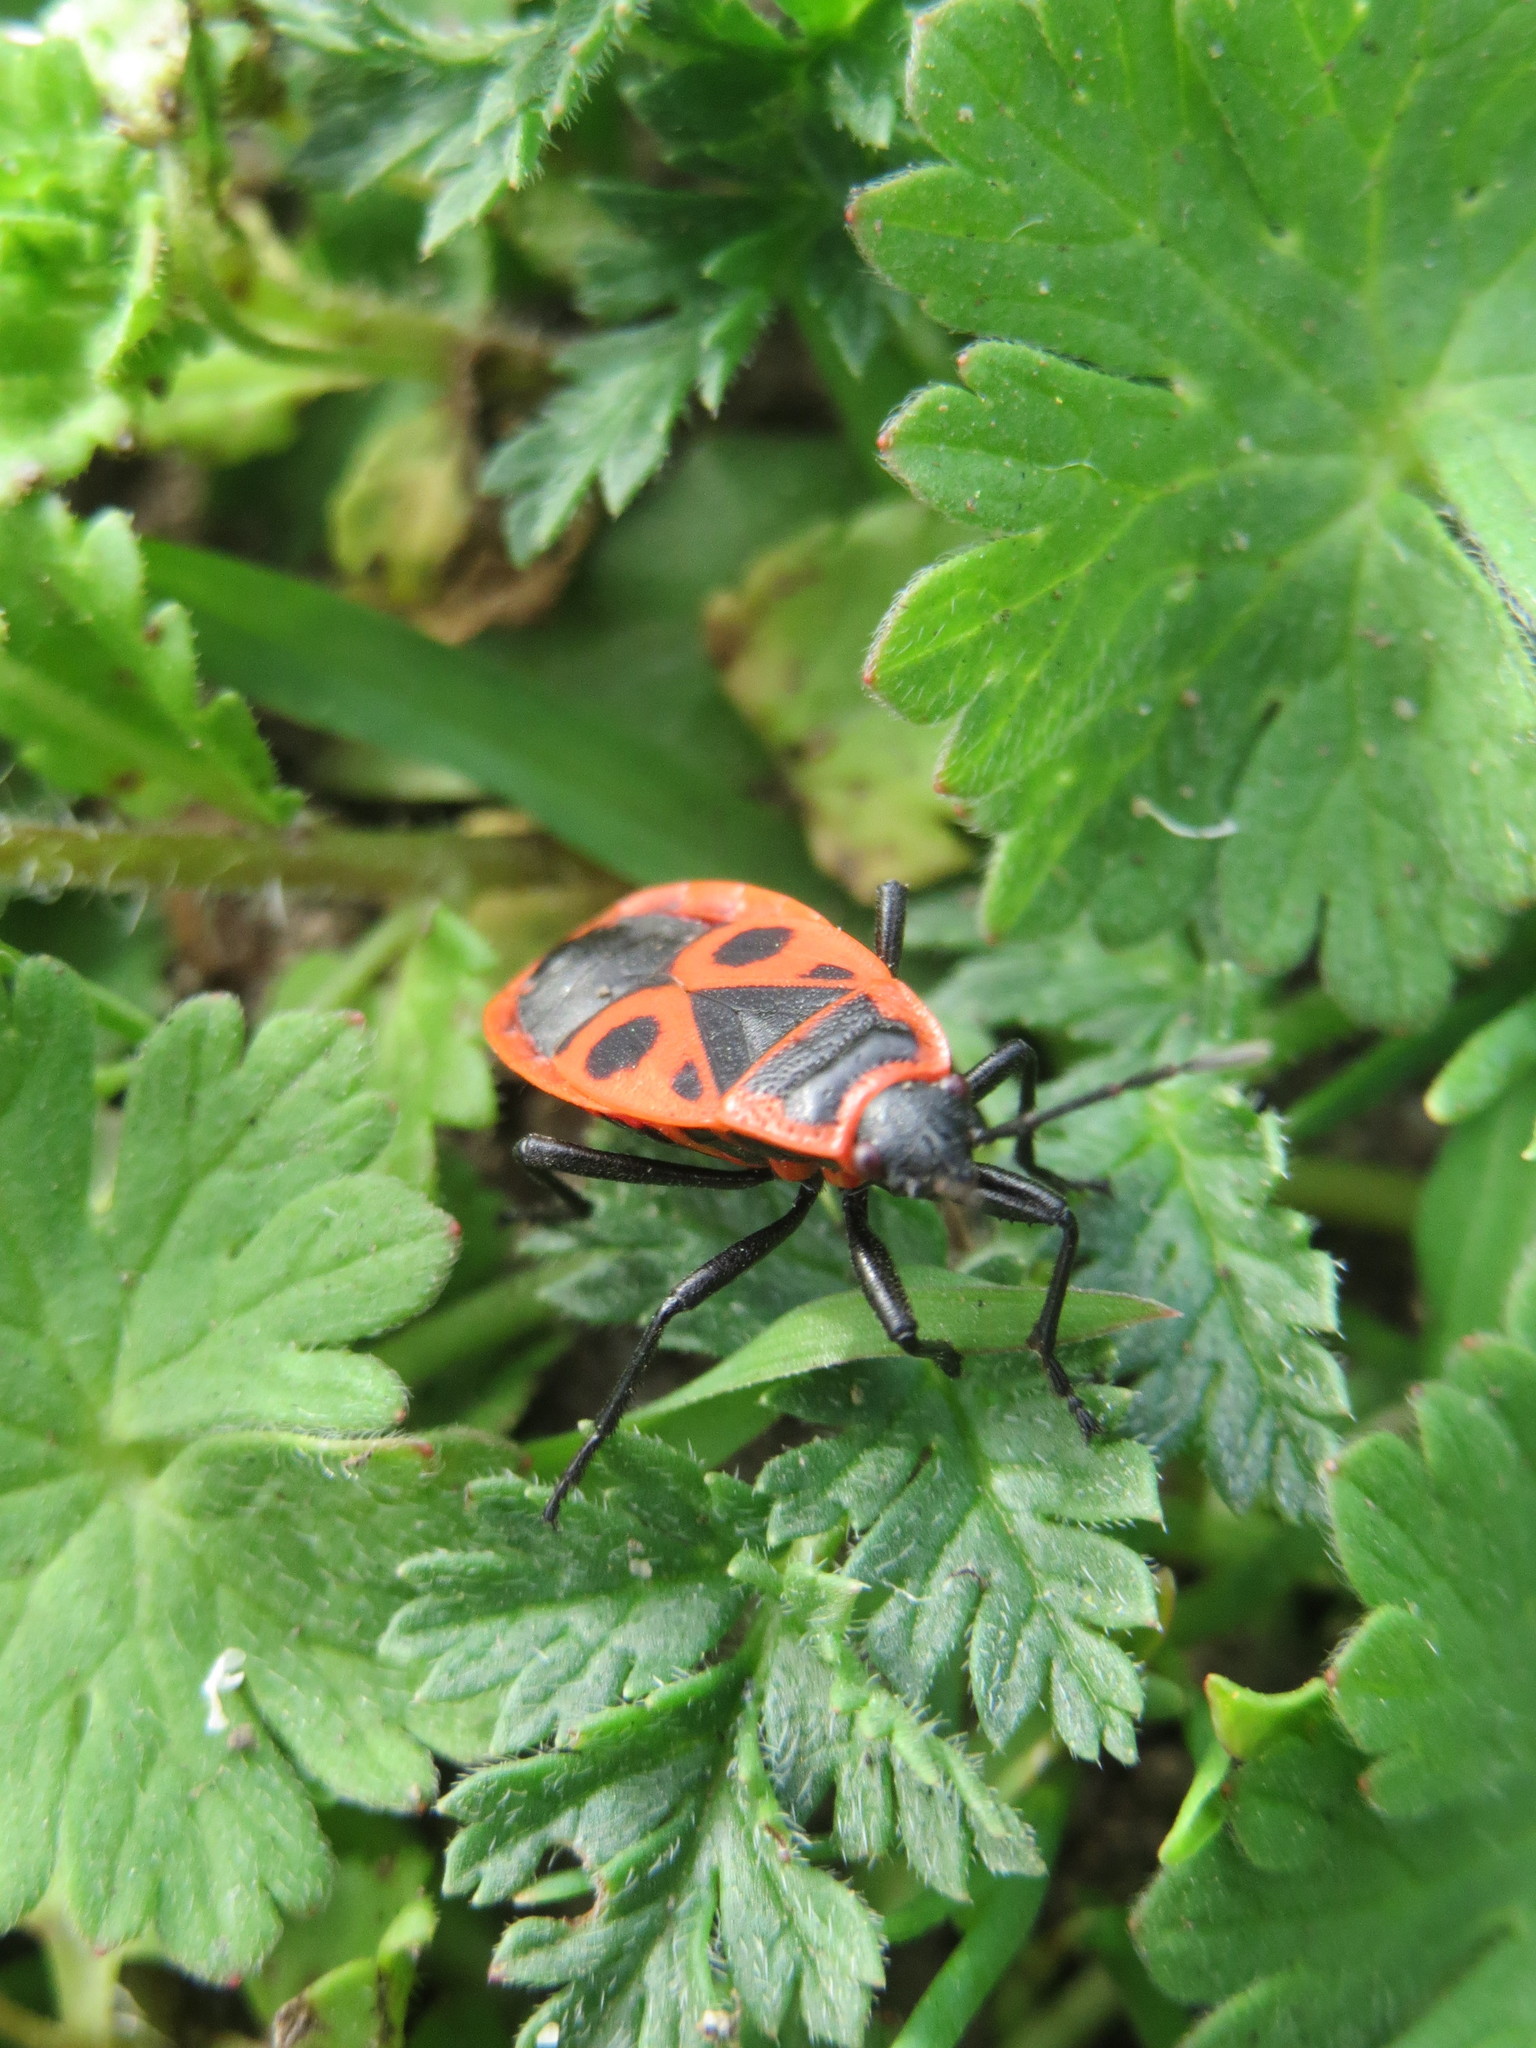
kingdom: Animalia
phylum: Arthropoda
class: Insecta
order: Hemiptera
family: Pyrrhocoridae
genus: Pyrrhocoris
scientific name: Pyrrhocoris apterus
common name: Firebug
